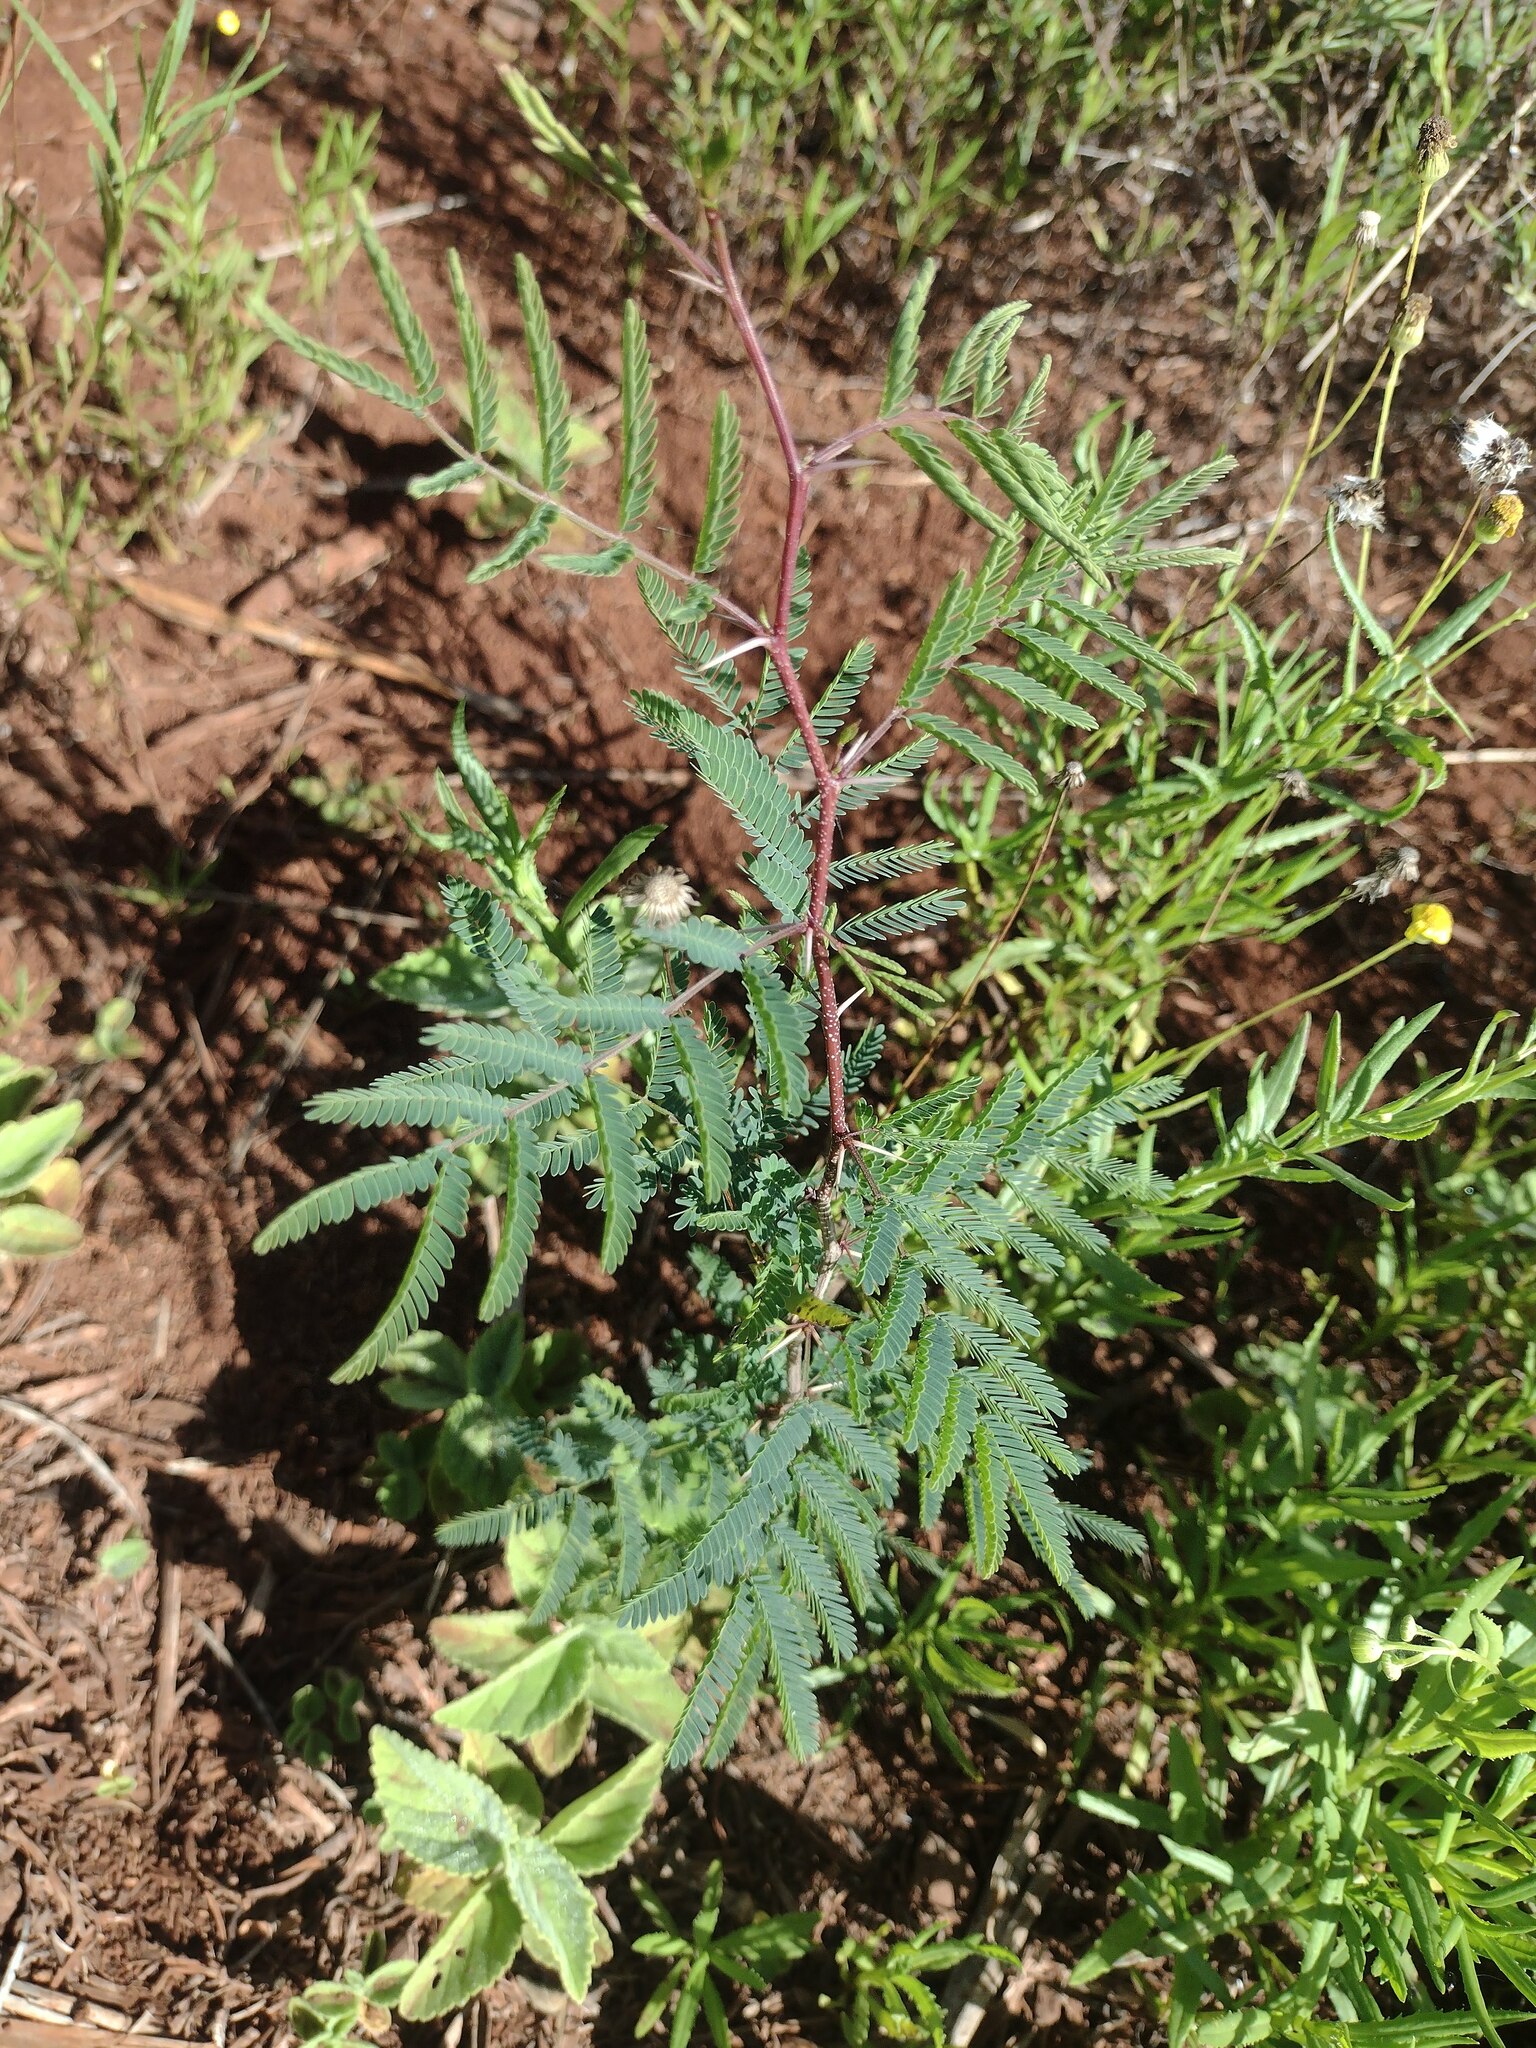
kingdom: Plantae
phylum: Tracheophyta
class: Magnoliopsida
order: Fabales
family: Fabaceae
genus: Vachellia
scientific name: Vachellia farnesiana
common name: Sweet acacia
